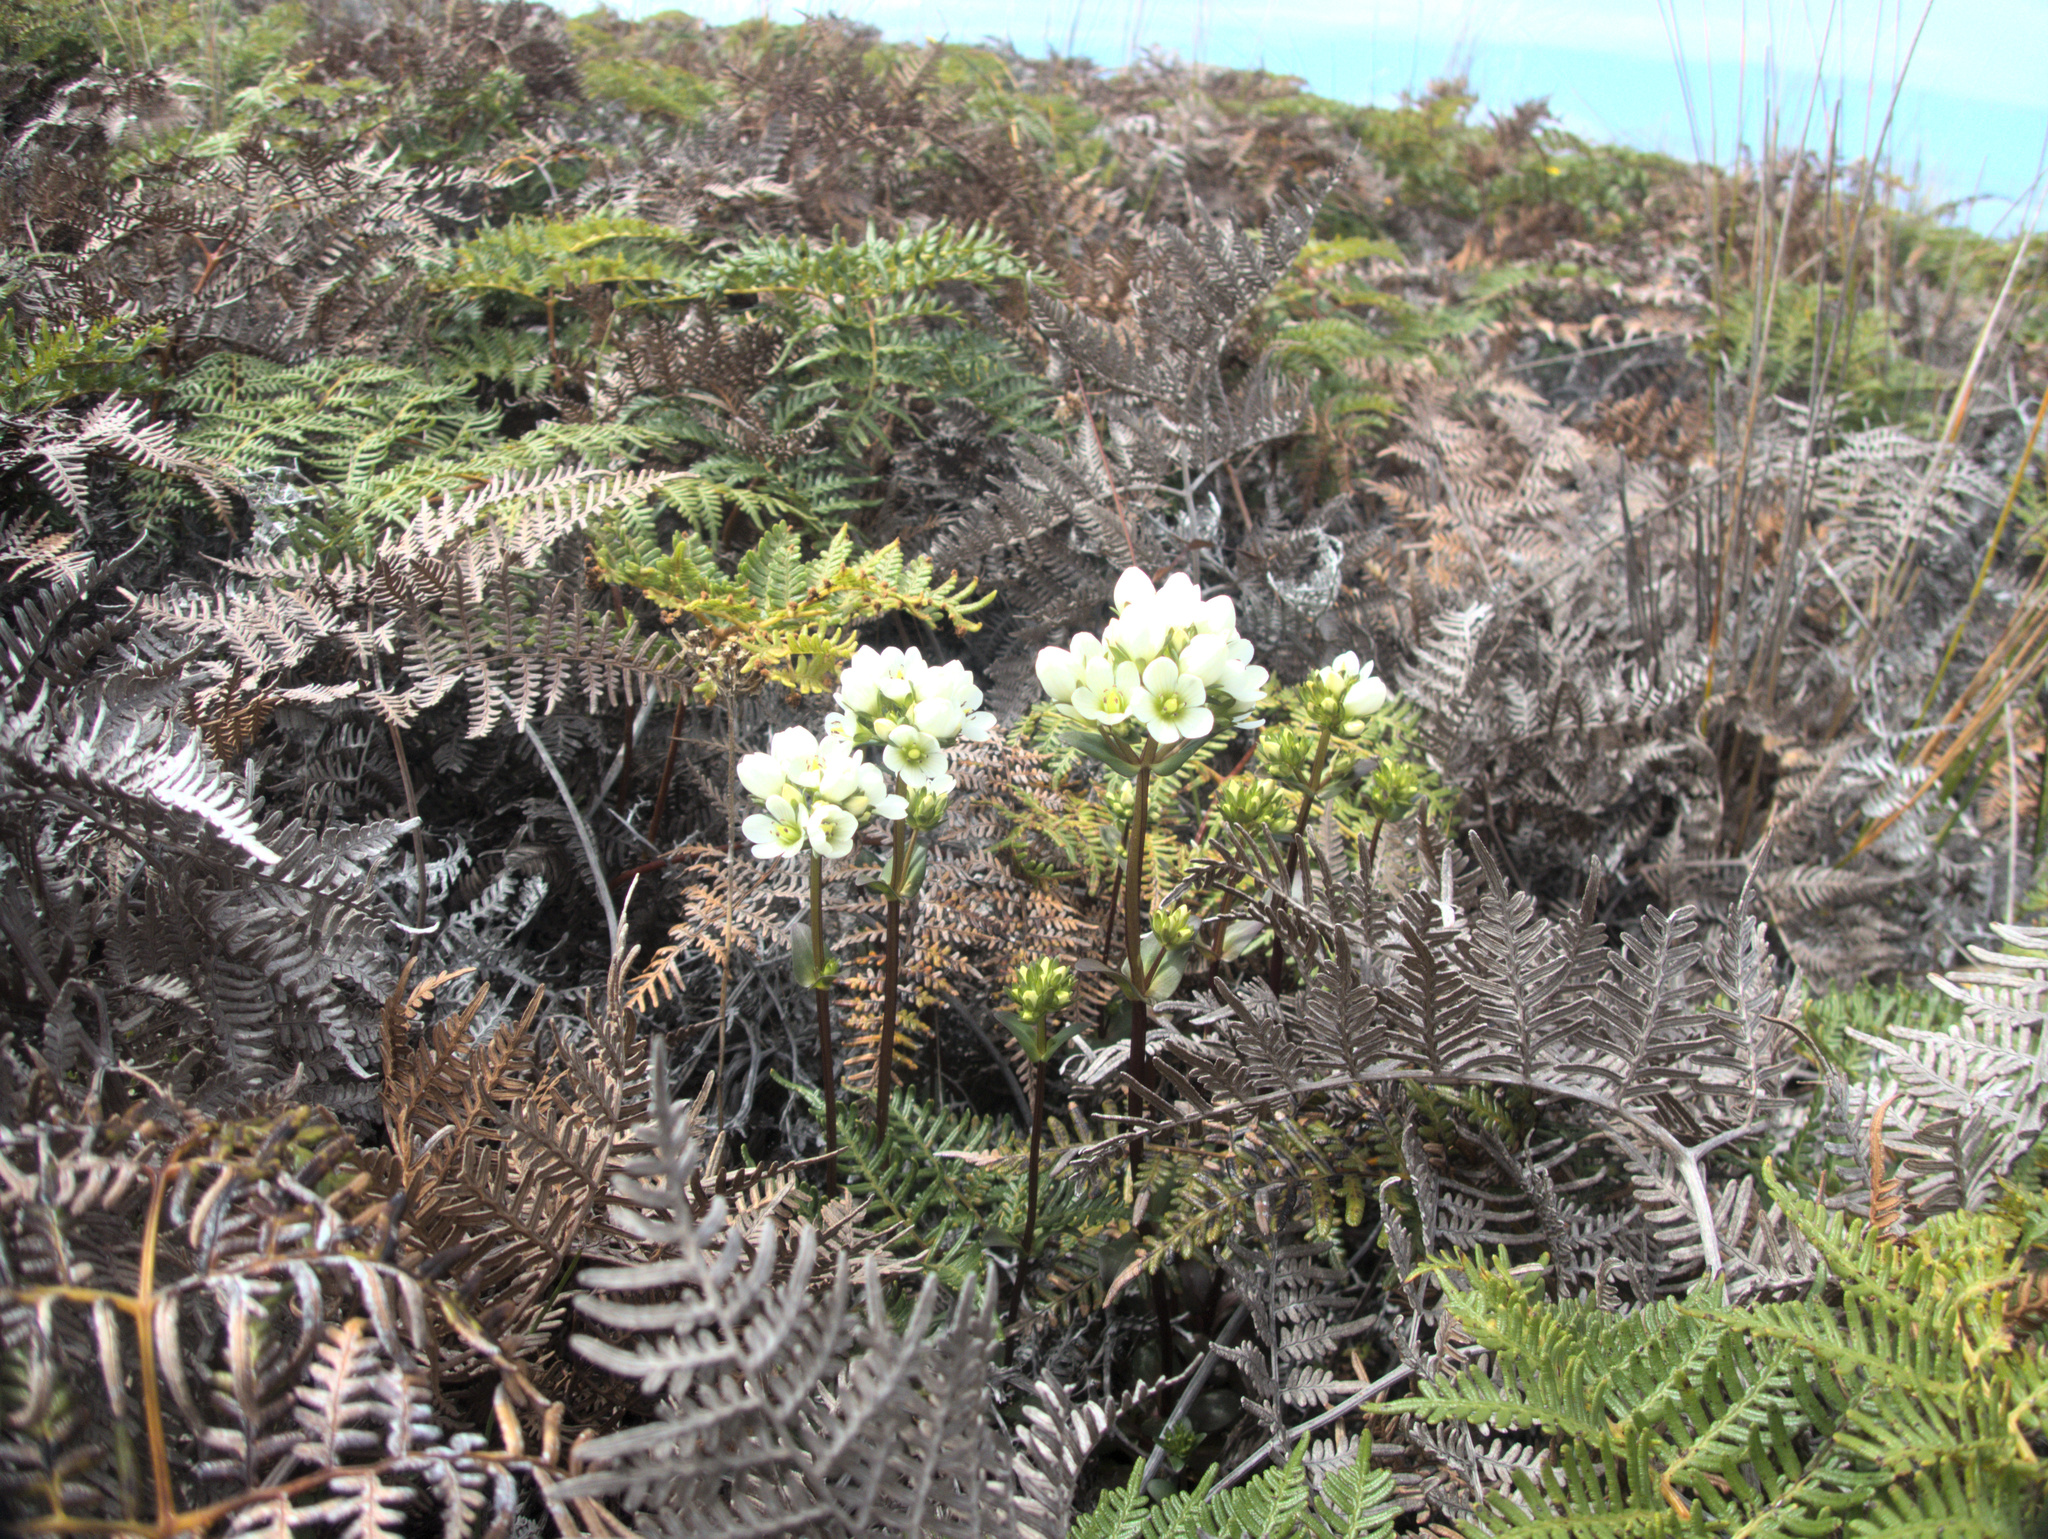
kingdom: Plantae
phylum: Tracheophyta
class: Magnoliopsida
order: Gentianales
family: Gentianaceae
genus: Gentianella
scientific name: Gentianella chathamica
